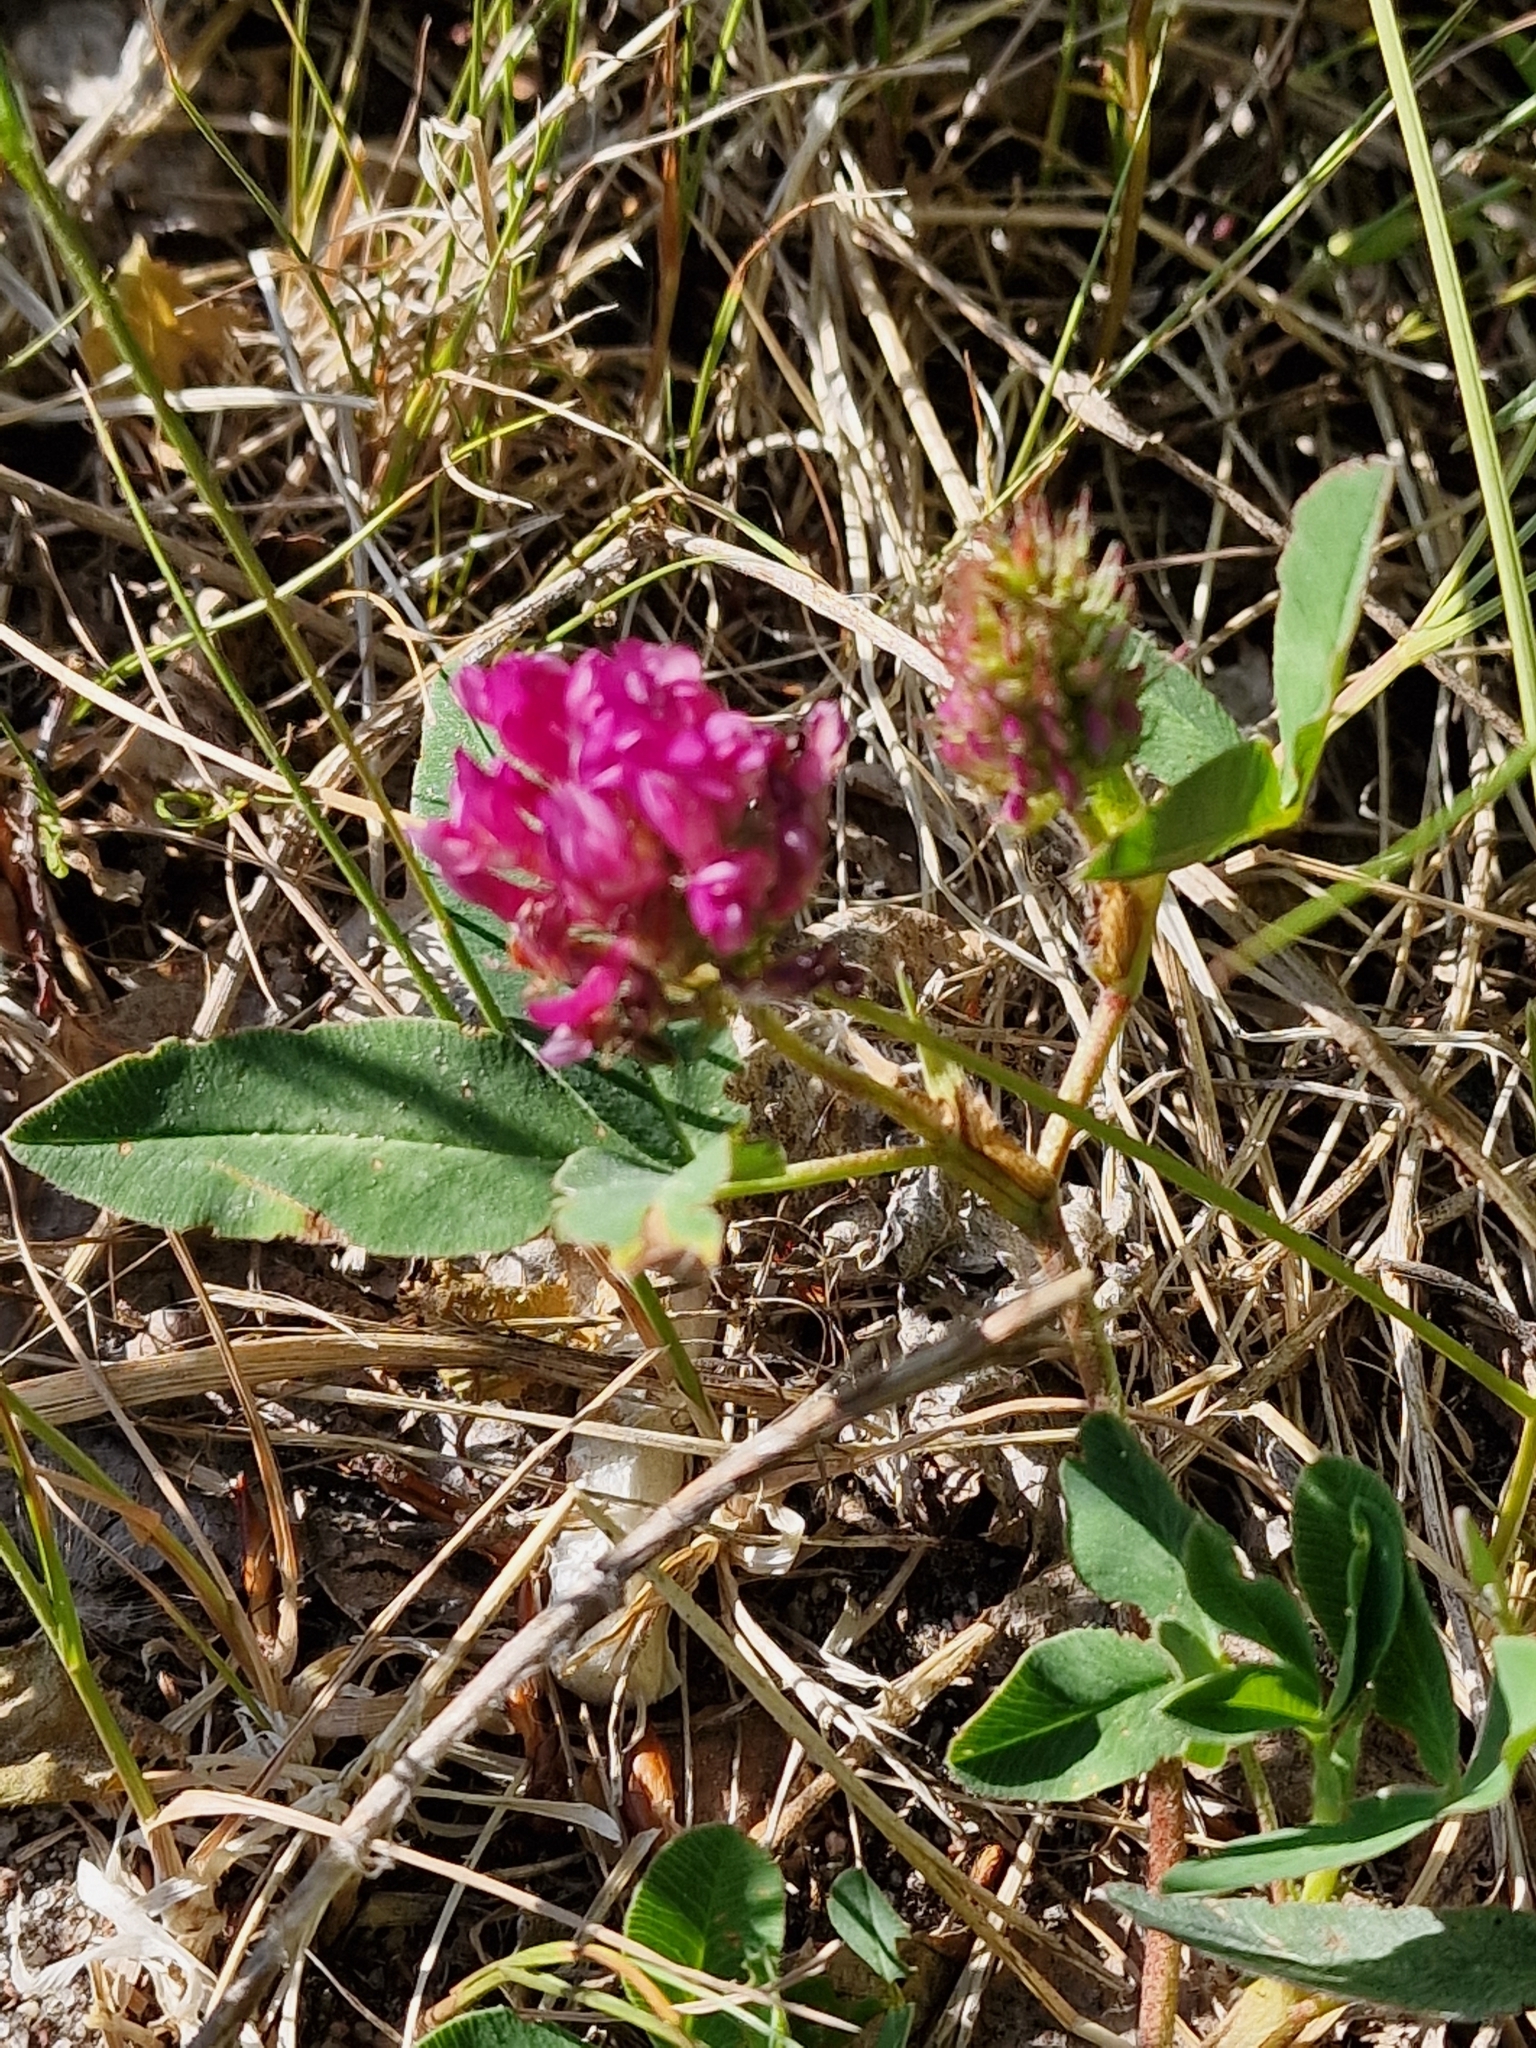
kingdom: Plantae
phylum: Tracheophyta
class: Magnoliopsida
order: Fabales
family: Fabaceae
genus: Trifolium
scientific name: Trifolium medium
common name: Zigzag clover
